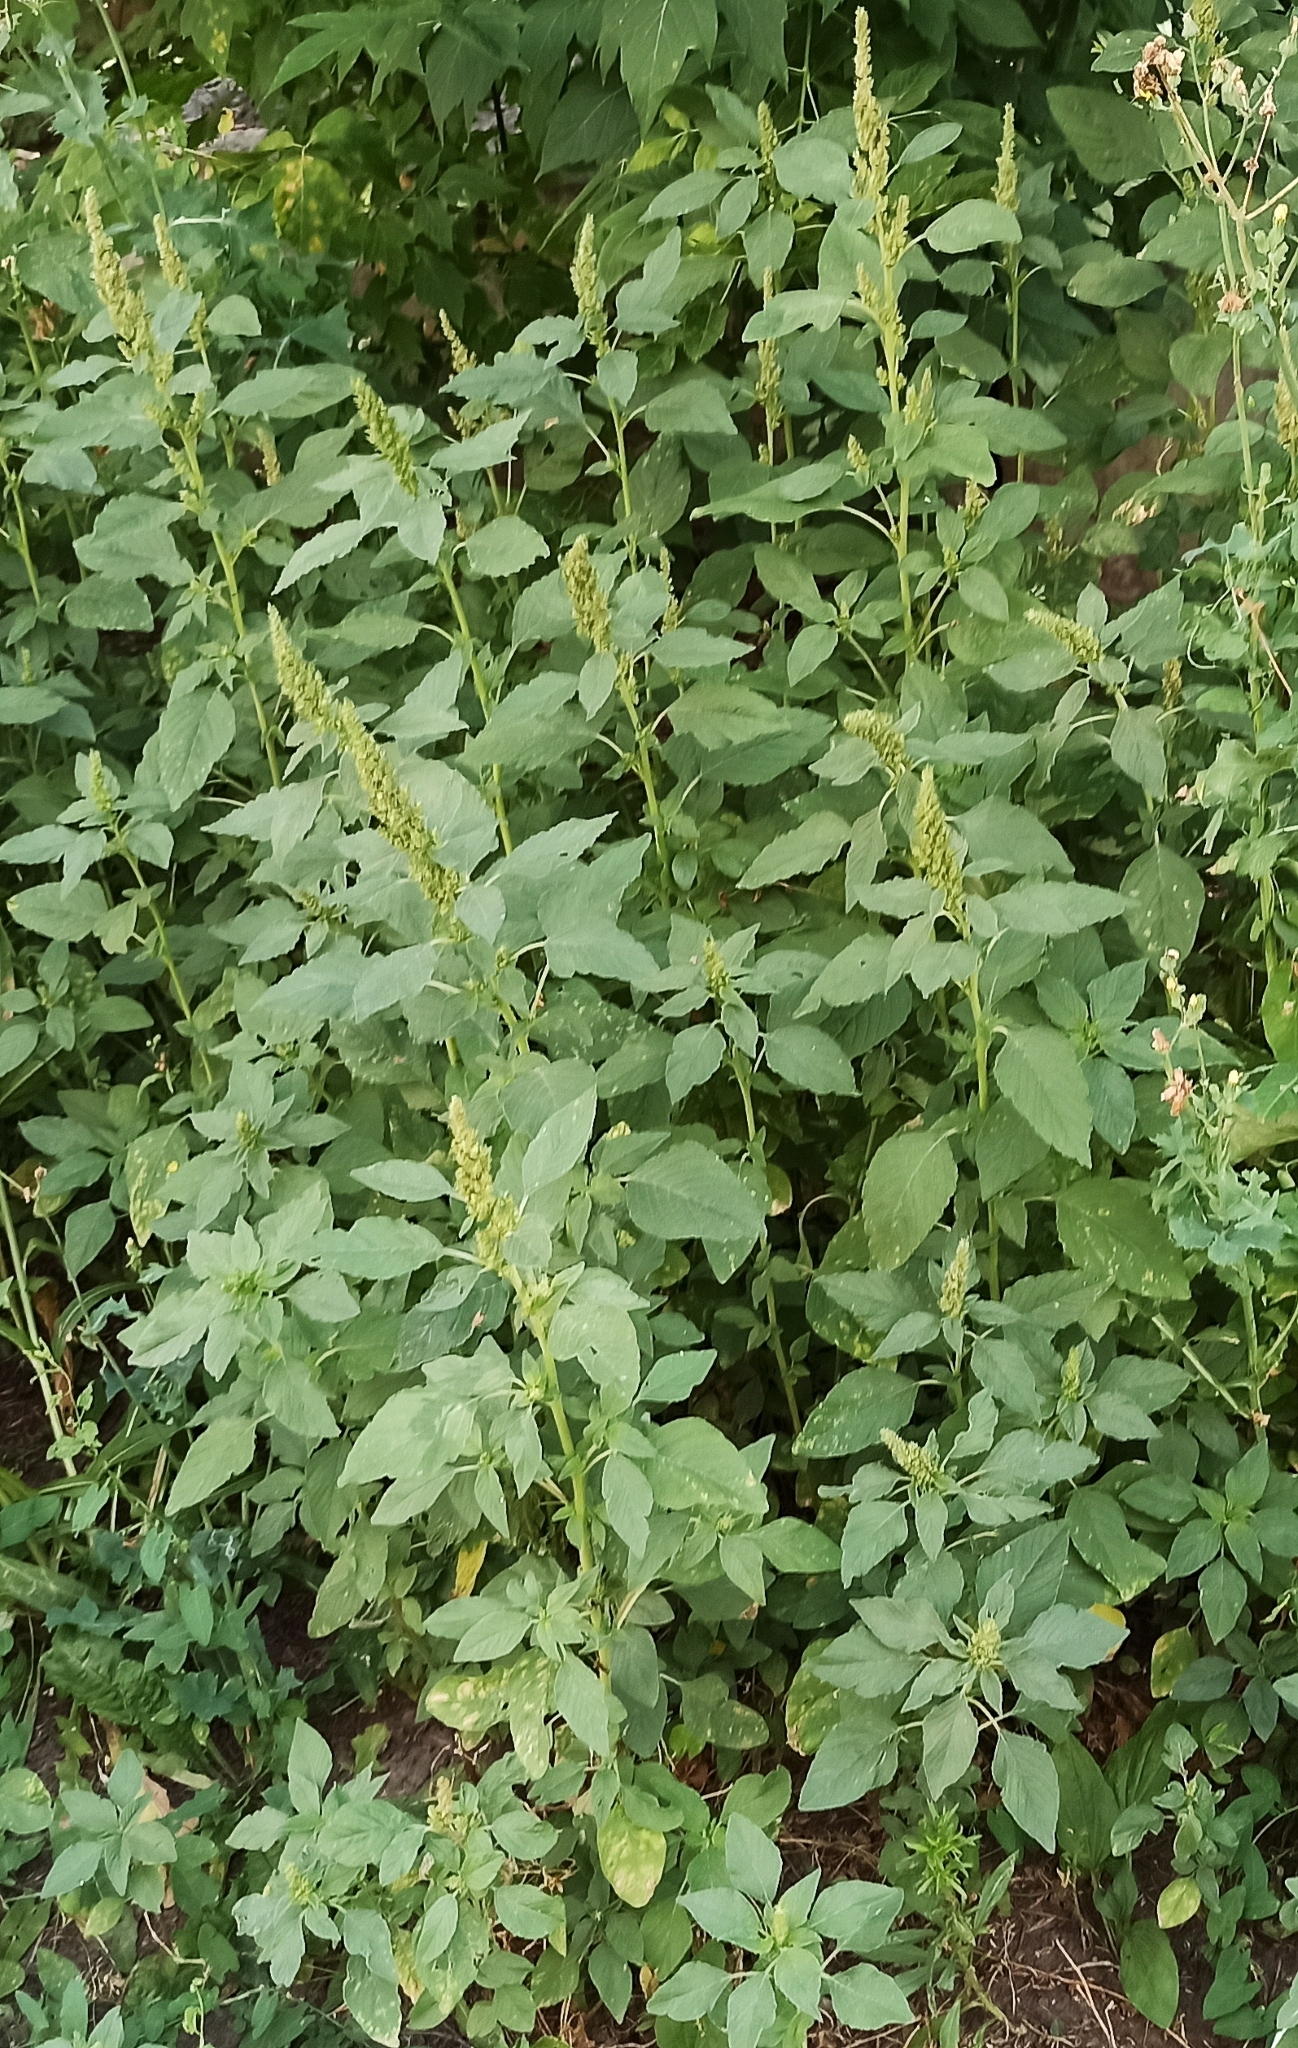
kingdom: Plantae
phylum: Tracheophyta
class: Magnoliopsida
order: Caryophyllales
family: Amaranthaceae
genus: Amaranthus
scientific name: Amaranthus retroflexus
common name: Redroot amaranth
